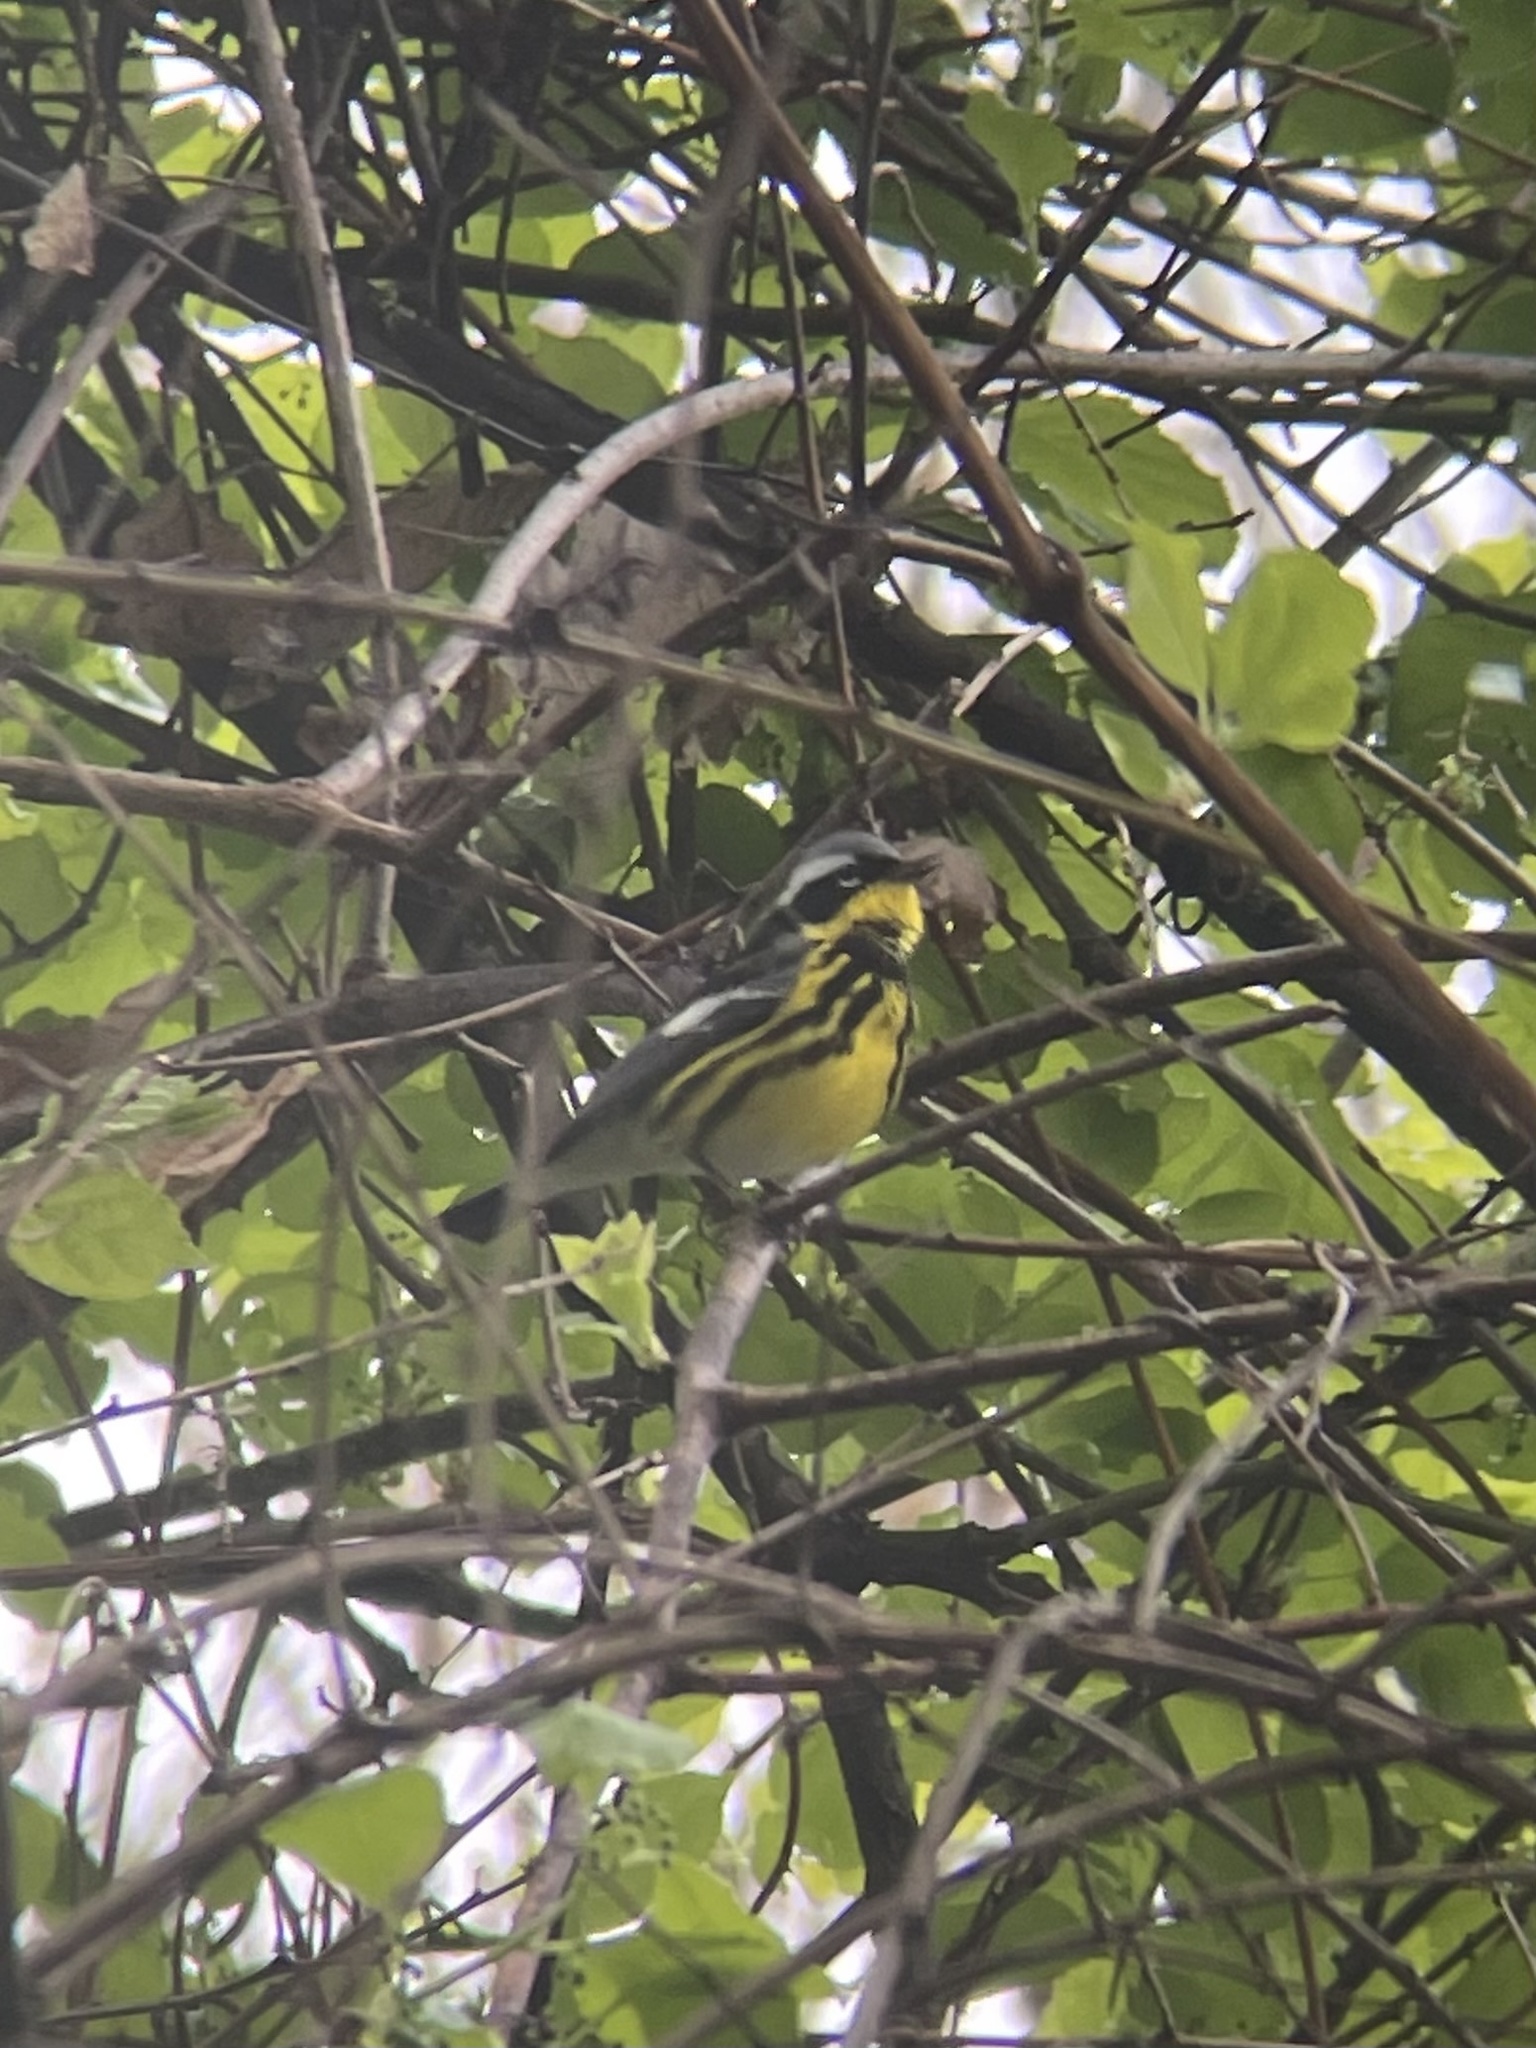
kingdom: Animalia
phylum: Chordata
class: Aves
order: Passeriformes
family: Parulidae
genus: Setophaga
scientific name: Setophaga magnolia
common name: Magnolia warbler
